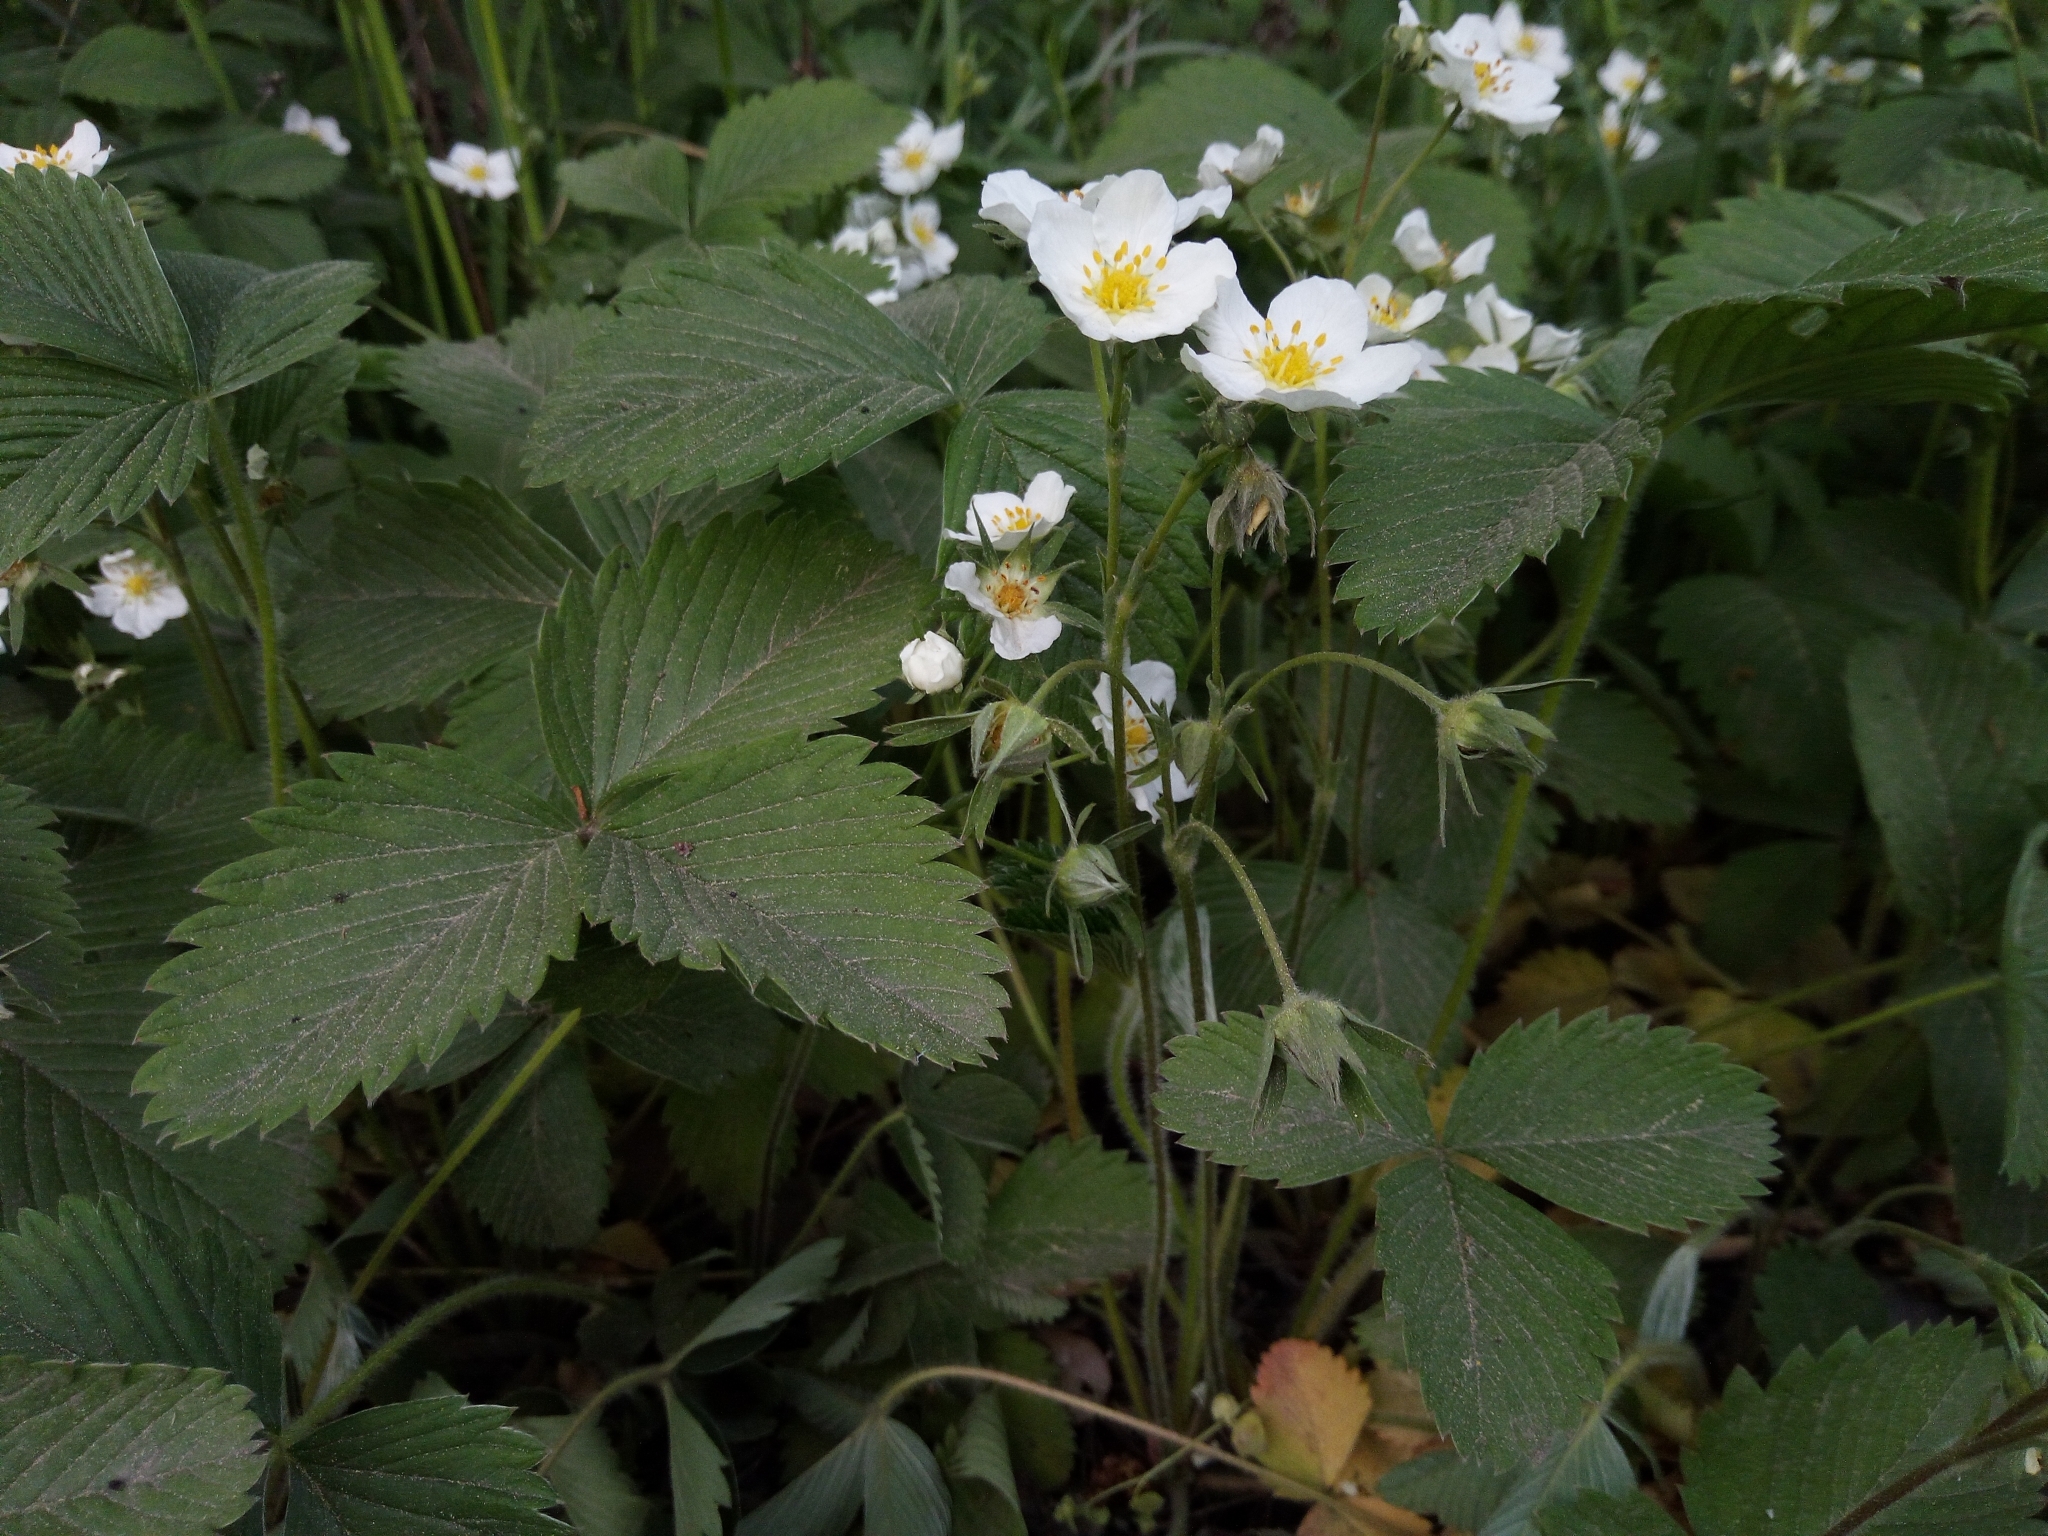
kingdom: Plantae
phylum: Tracheophyta
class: Magnoliopsida
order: Rosales
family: Rosaceae
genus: Fragaria
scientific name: Fragaria viridis
